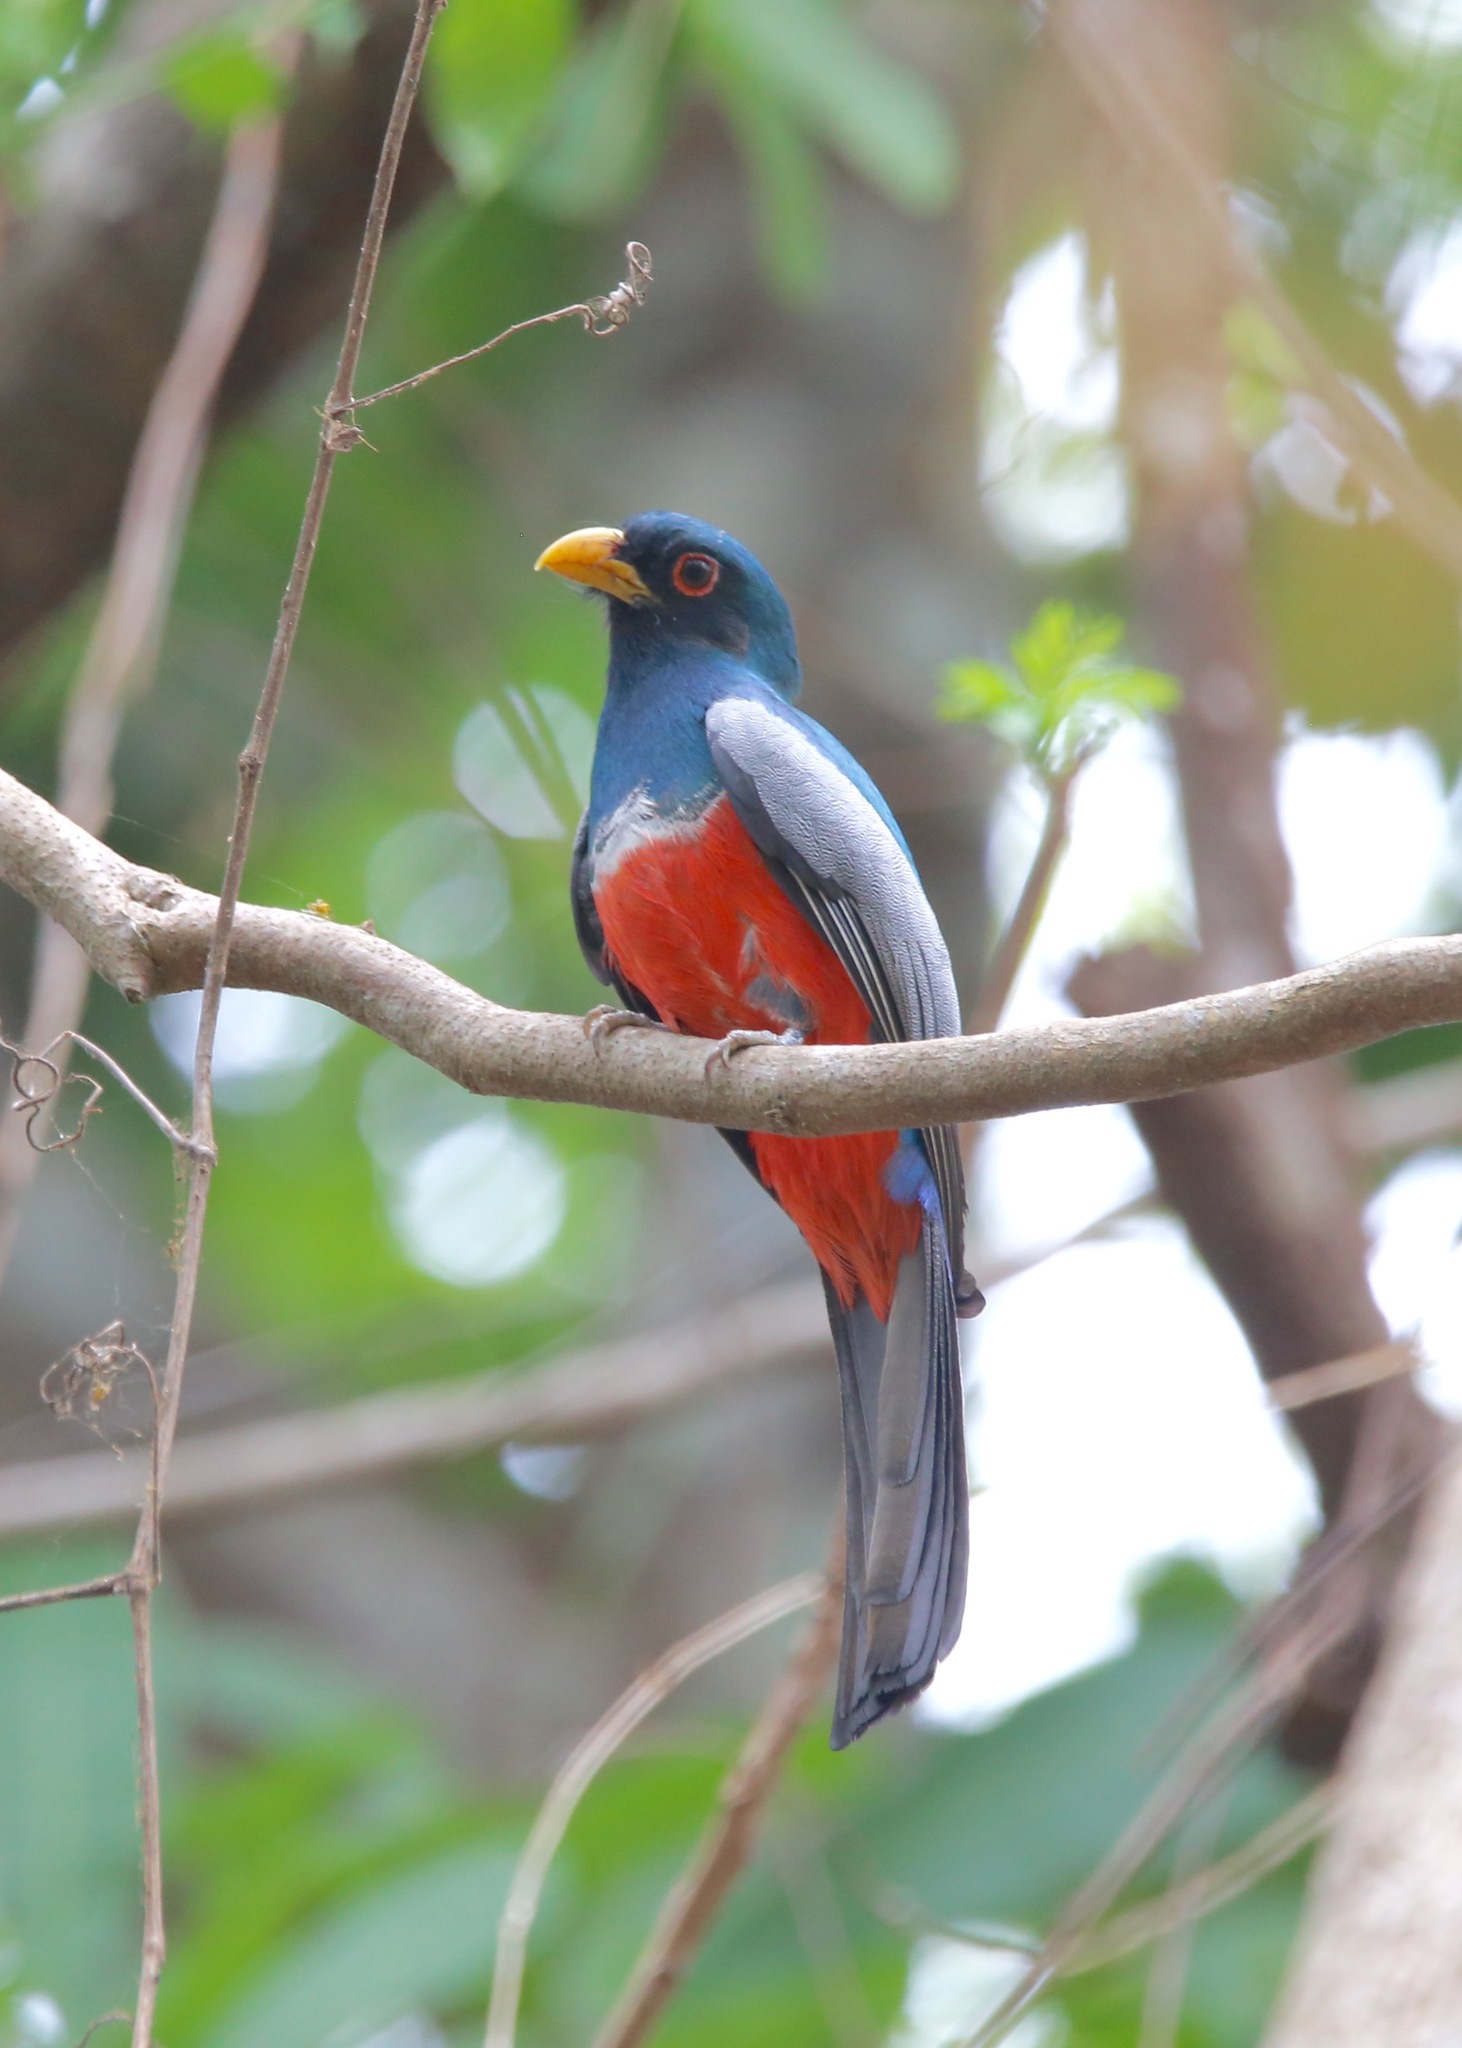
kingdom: Animalia
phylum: Chordata
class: Aves
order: Trogoniformes
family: Trogonidae
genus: Trogon
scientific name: Trogon melanurus
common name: Black-tailed trogon
